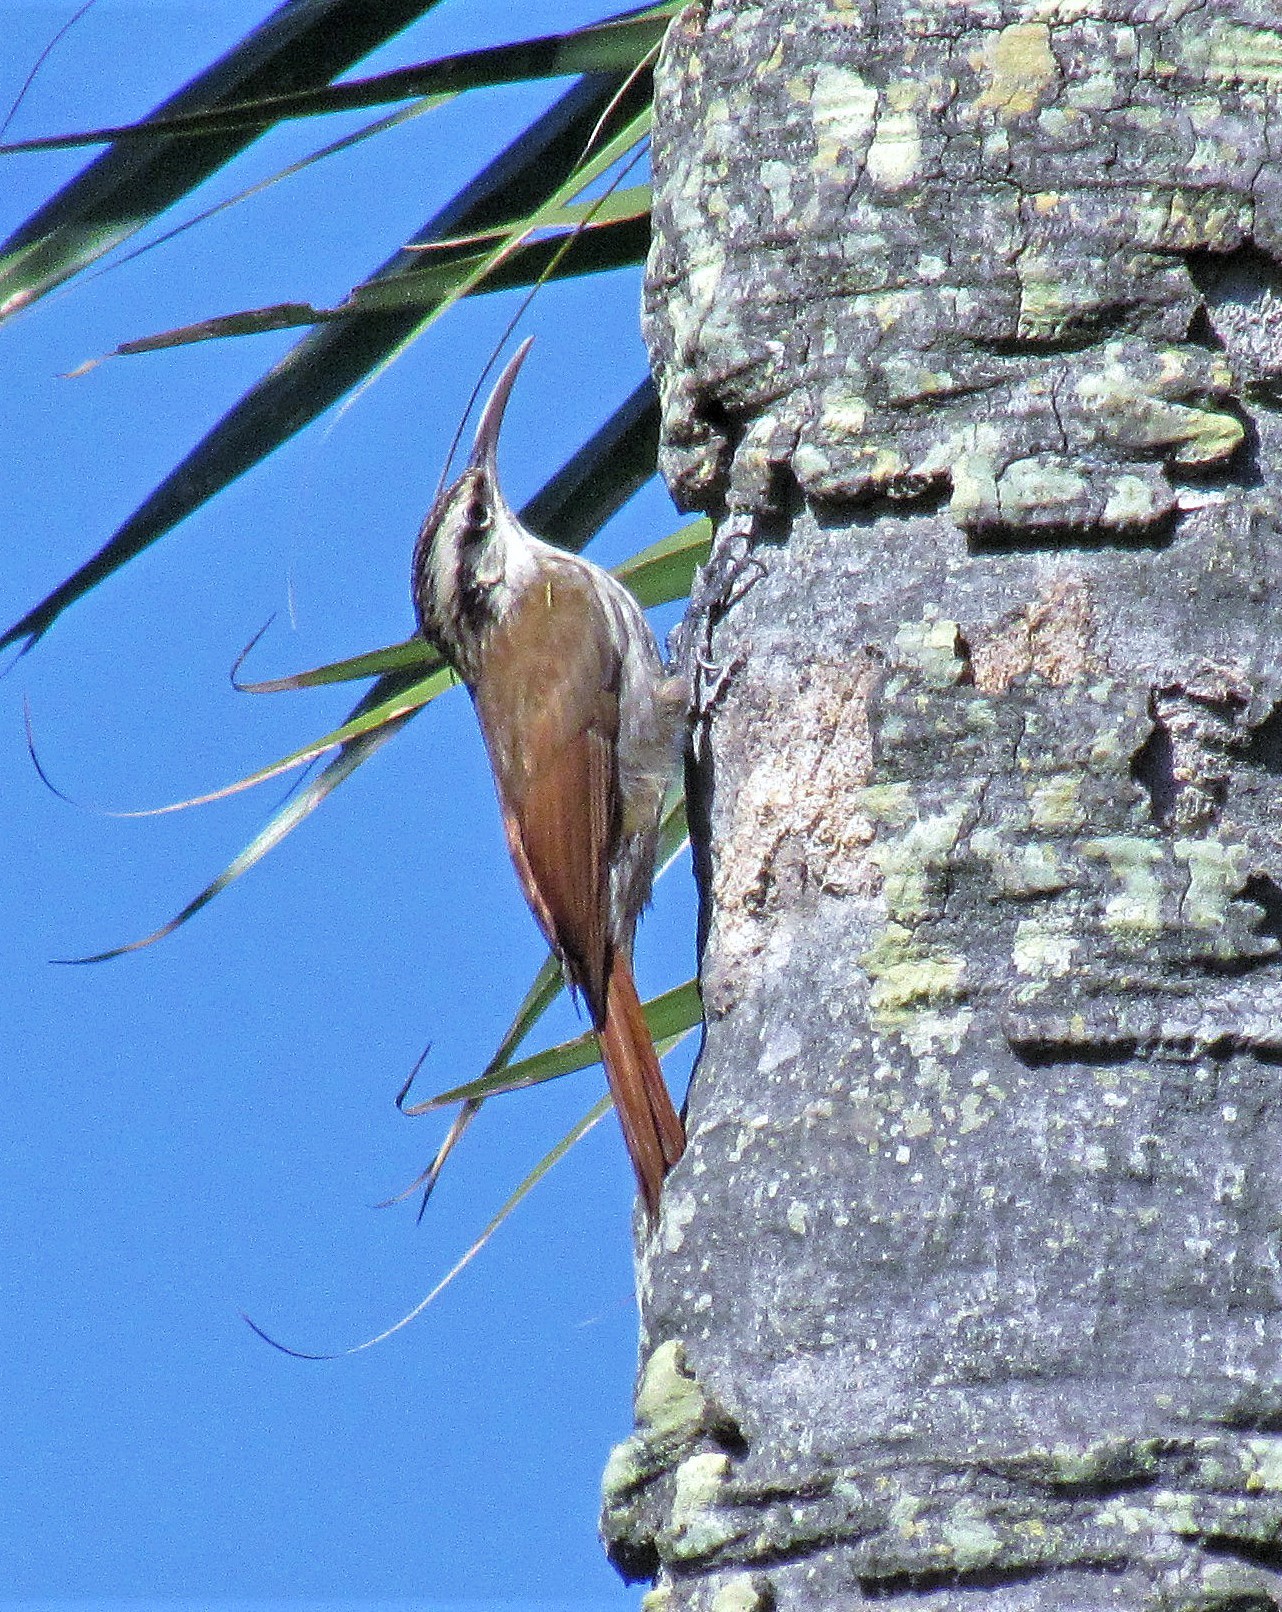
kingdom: Animalia
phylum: Chordata
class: Aves
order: Passeriformes
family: Furnariidae
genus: Lepidocolaptes
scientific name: Lepidocolaptes angustirostris
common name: Narrow-billed woodcreeper
